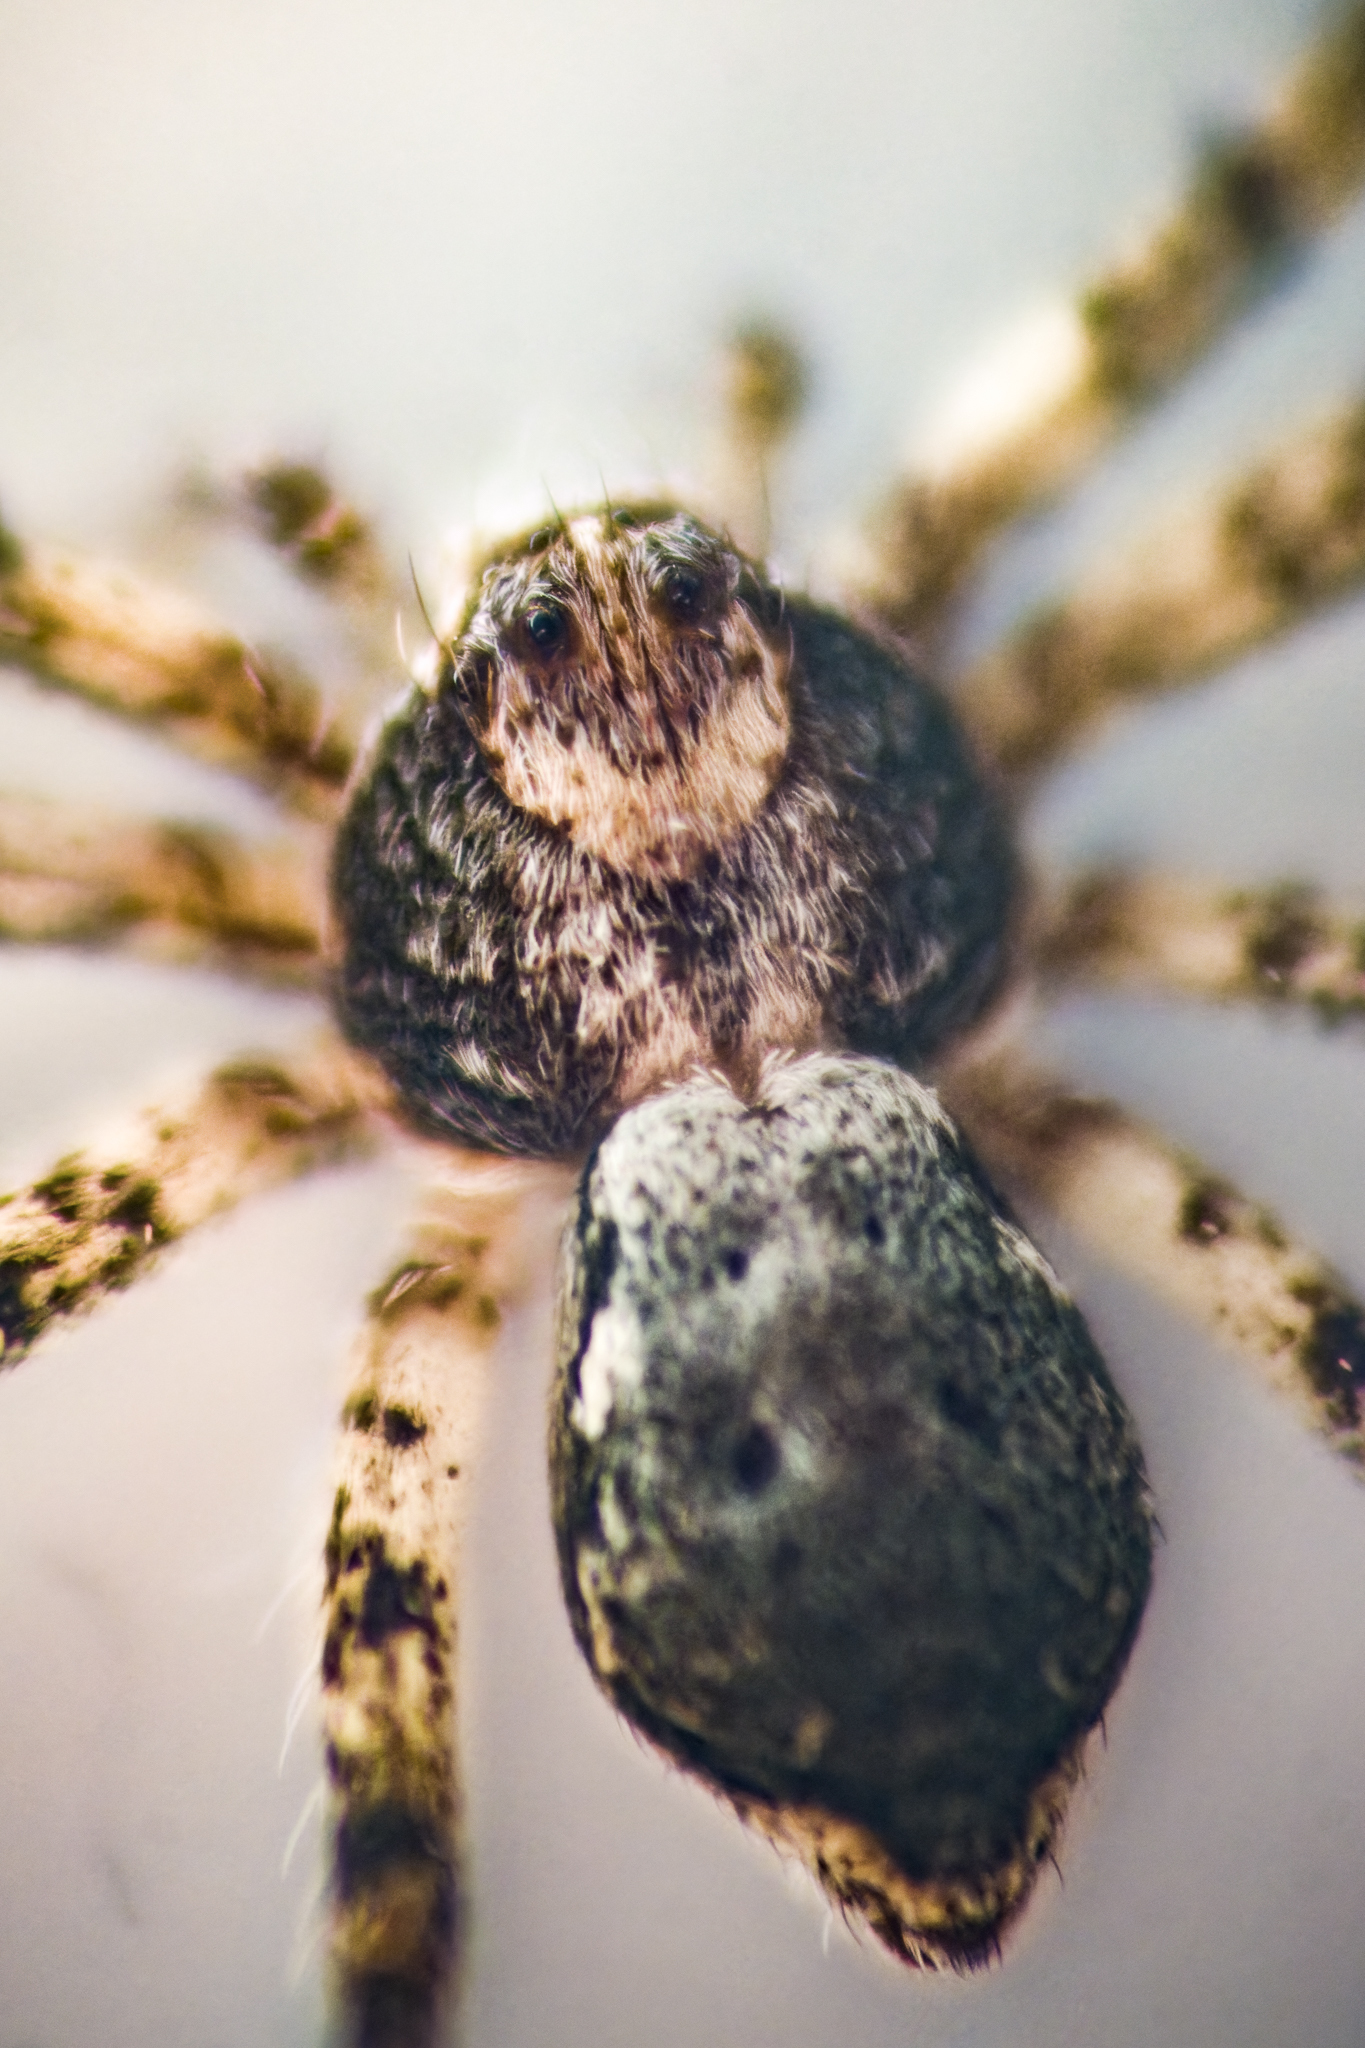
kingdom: Animalia
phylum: Arthropoda
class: Arachnida
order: Araneae
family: Philodromidae
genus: Philodromus
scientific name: Philodromus vulgaris
